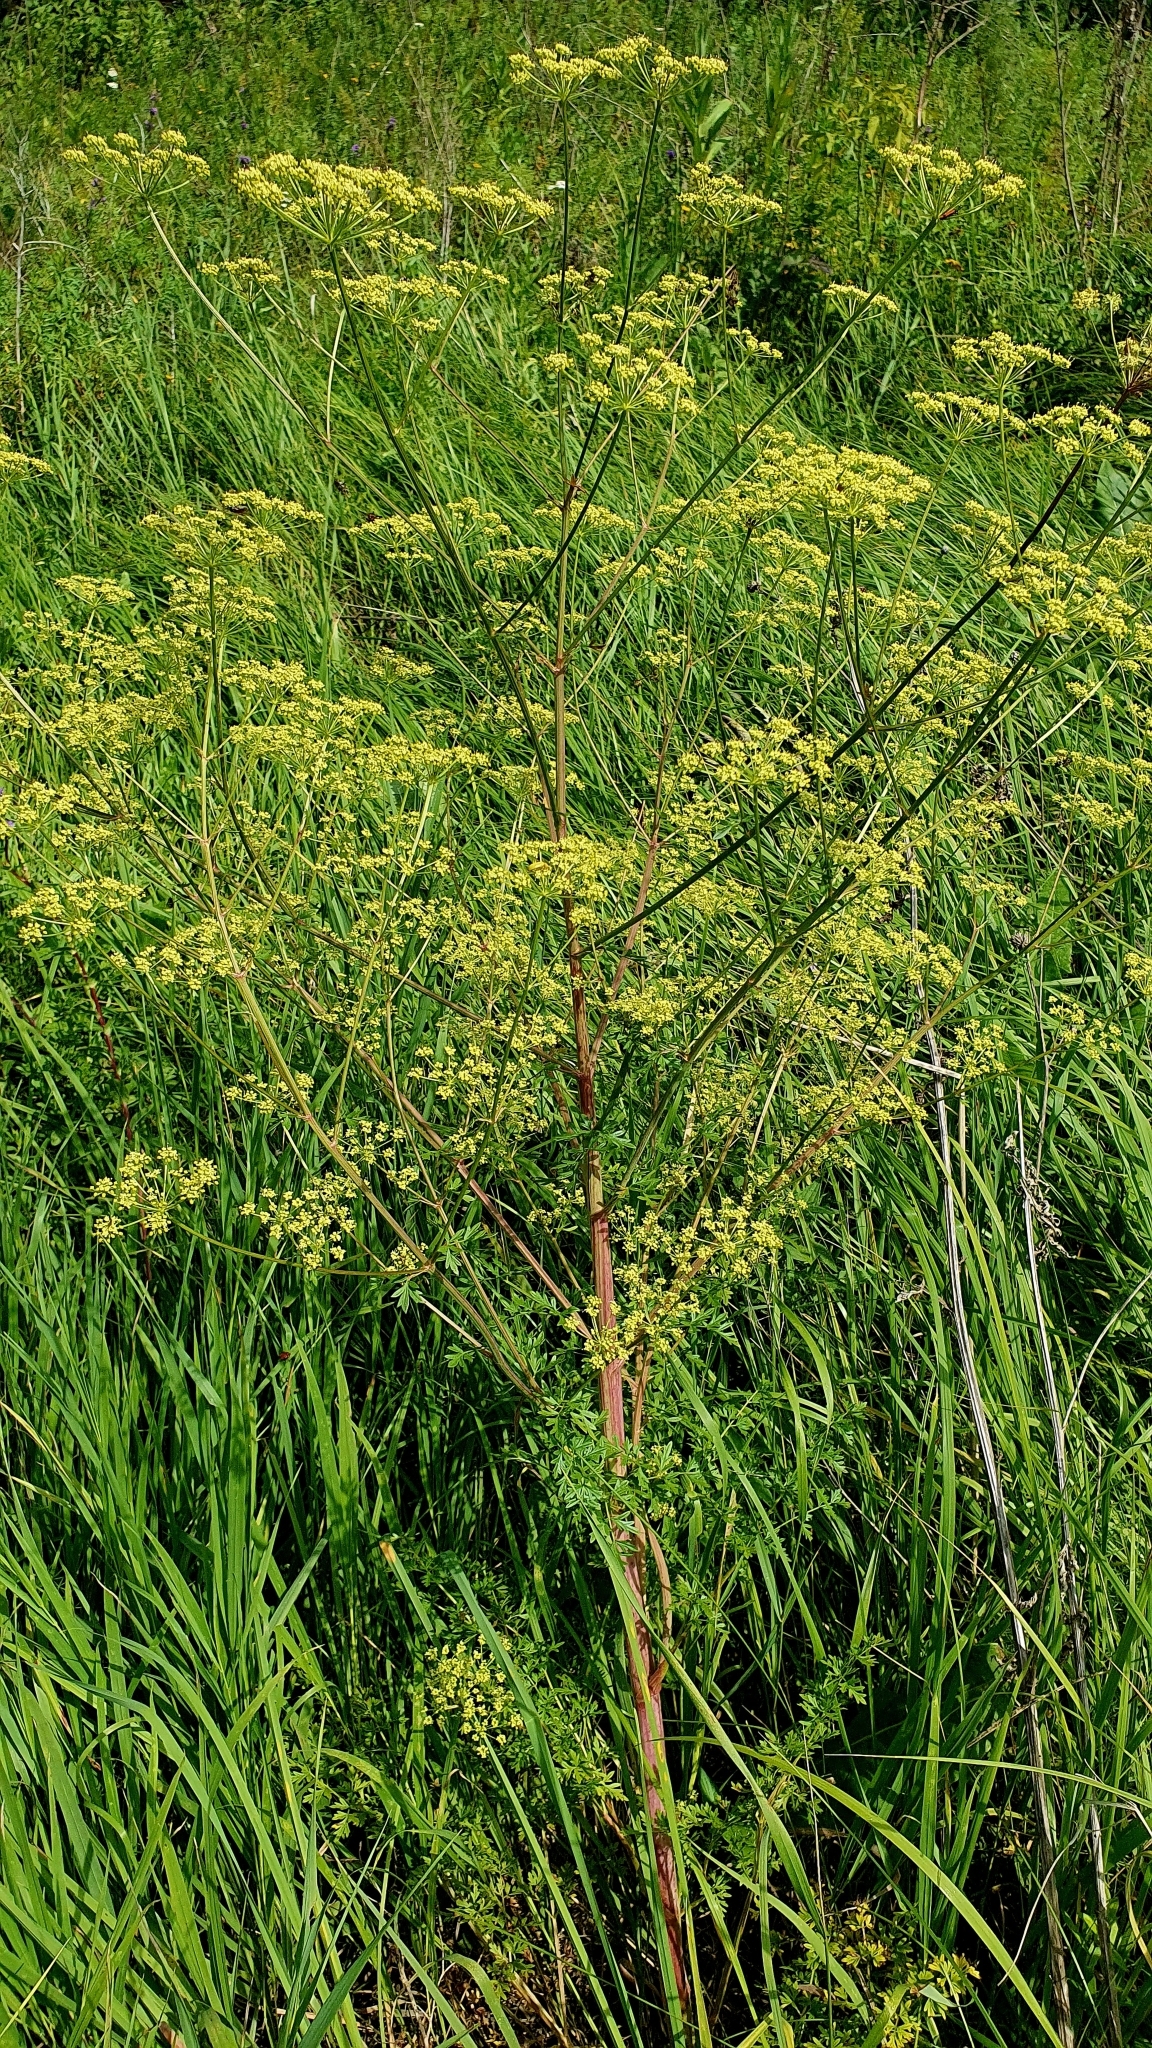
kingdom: Plantae
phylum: Tracheophyta
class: Magnoliopsida
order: Apiales
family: Apiaceae
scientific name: Apiaceae
